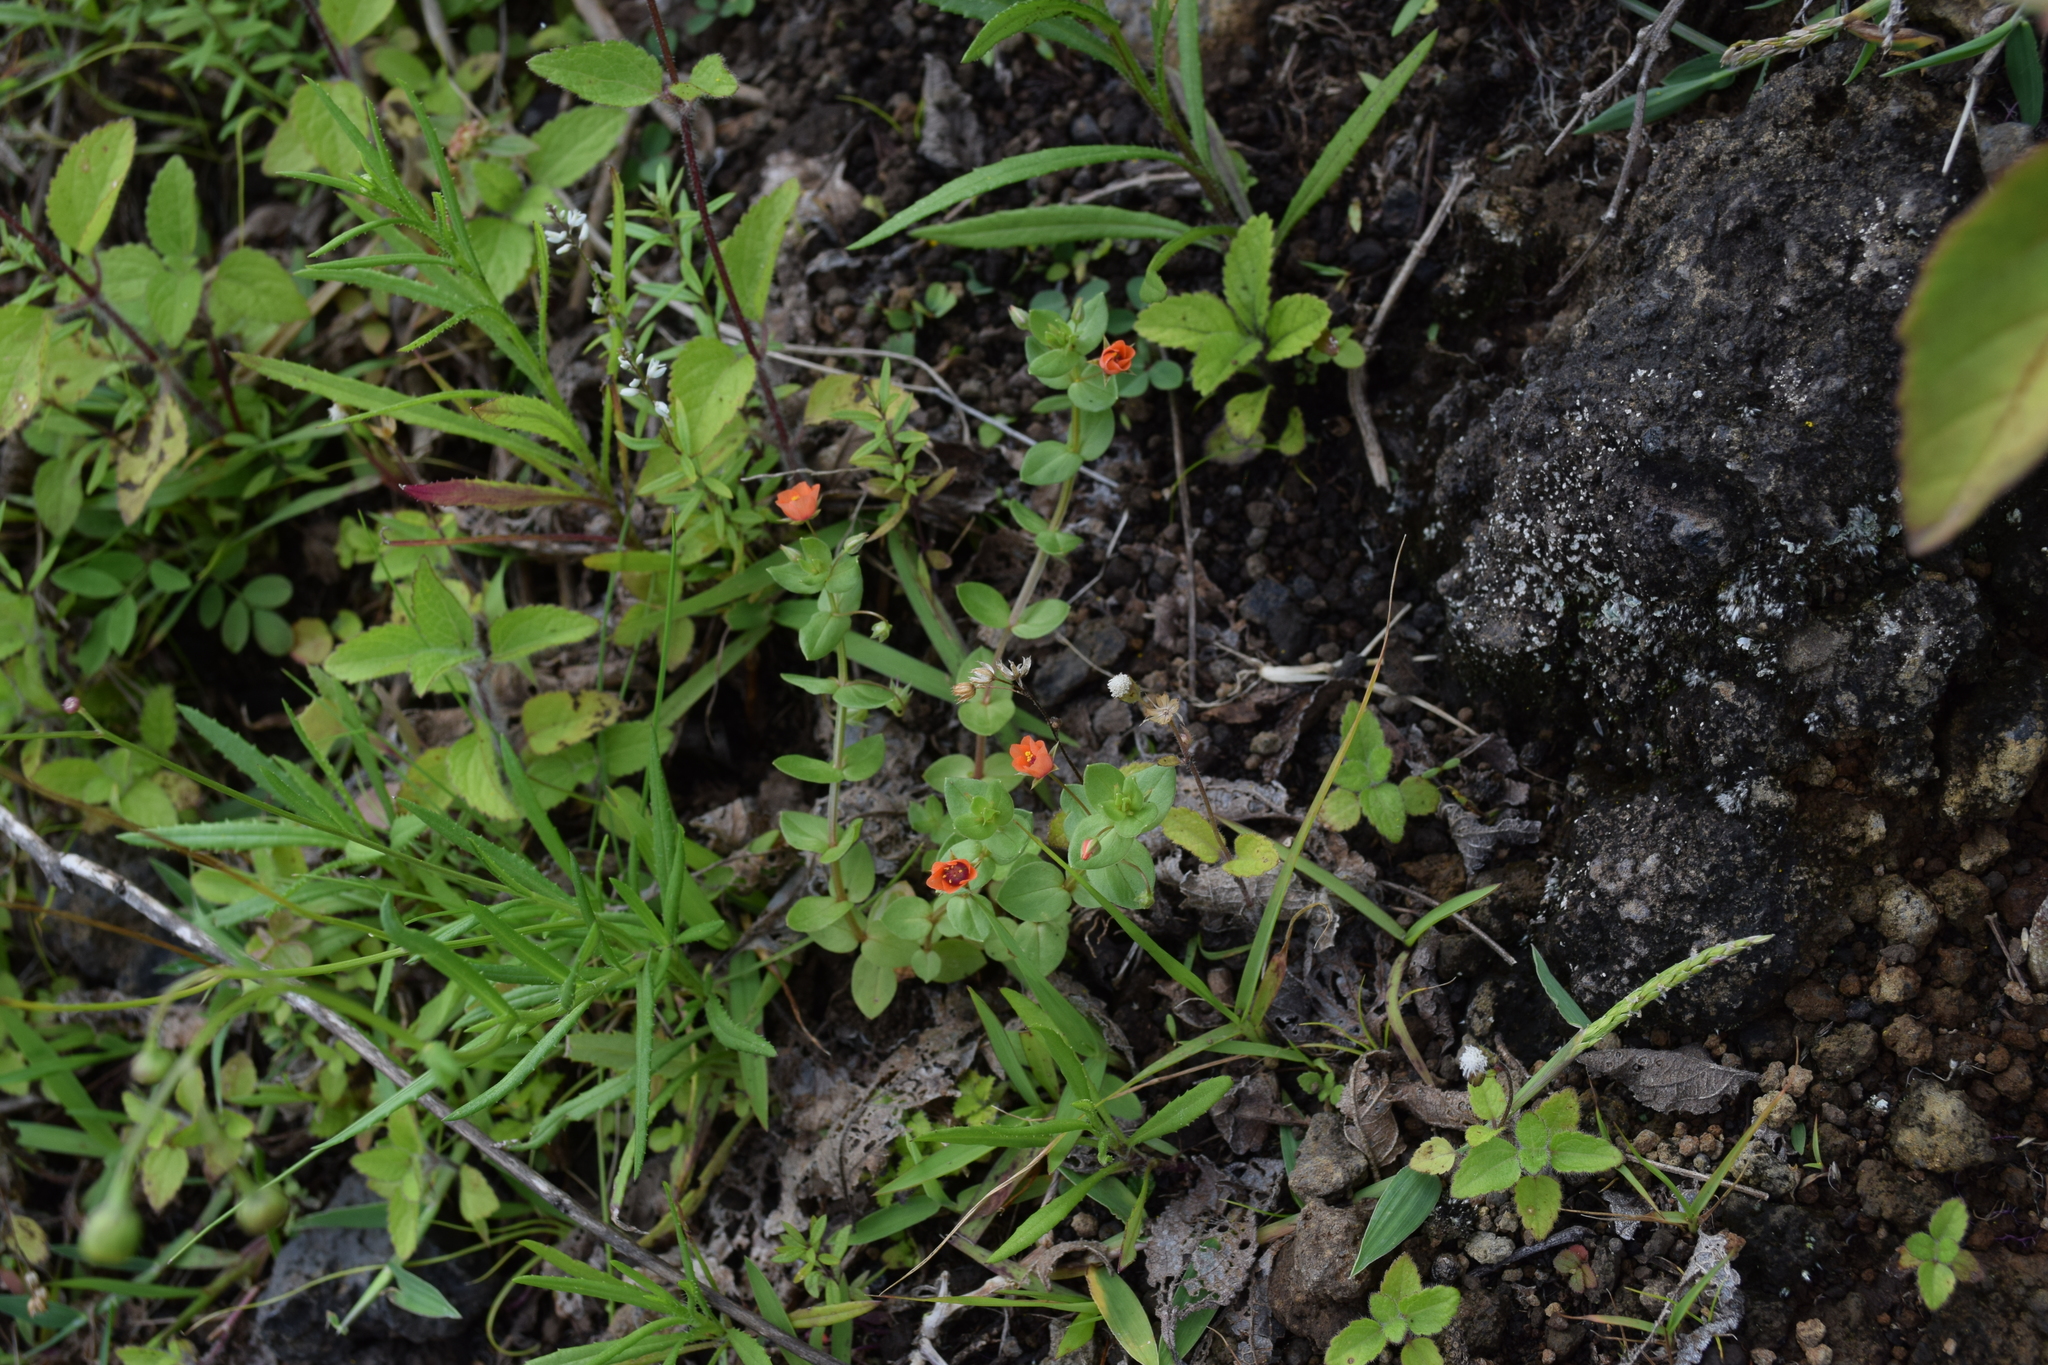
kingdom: Plantae
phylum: Tracheophyta
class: Magnoliopsida
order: Ericales
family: Primulaceae
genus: Lysimachia
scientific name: Lysimachia arvensis
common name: Scarlet pimpernel
